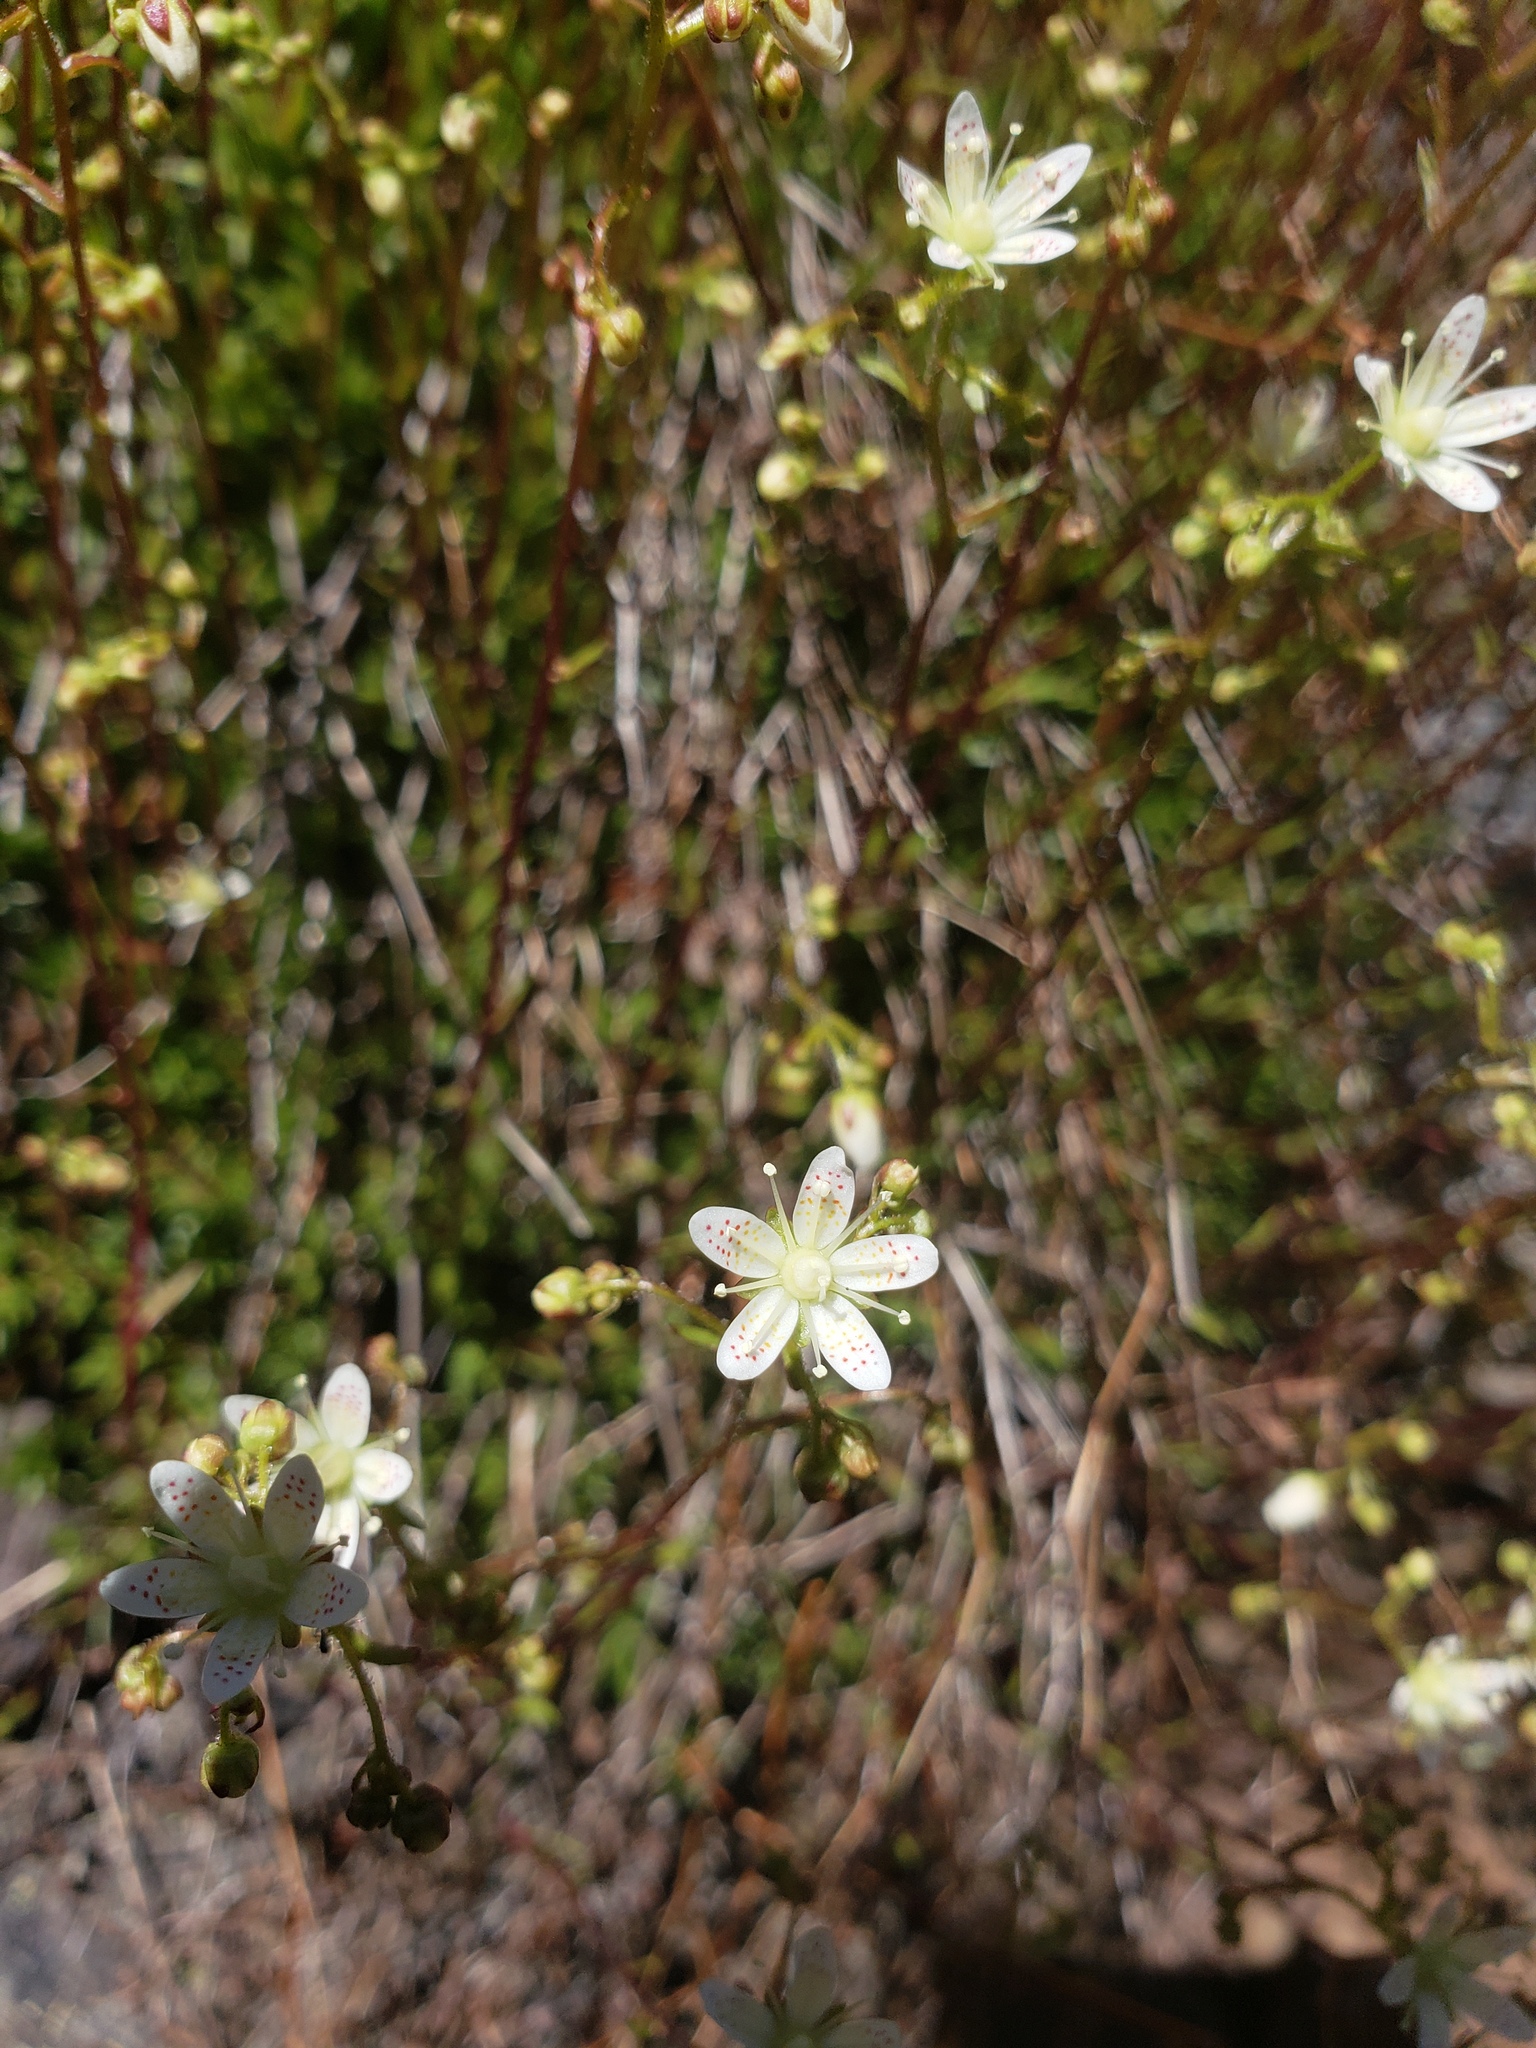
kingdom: Plantae
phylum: Tracheophyta
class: Magnoliopsida
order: Saxifragales
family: Saxifragaceae
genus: Saxifraga
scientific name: Saxifraga bronchialis
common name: Matted saxifrage
